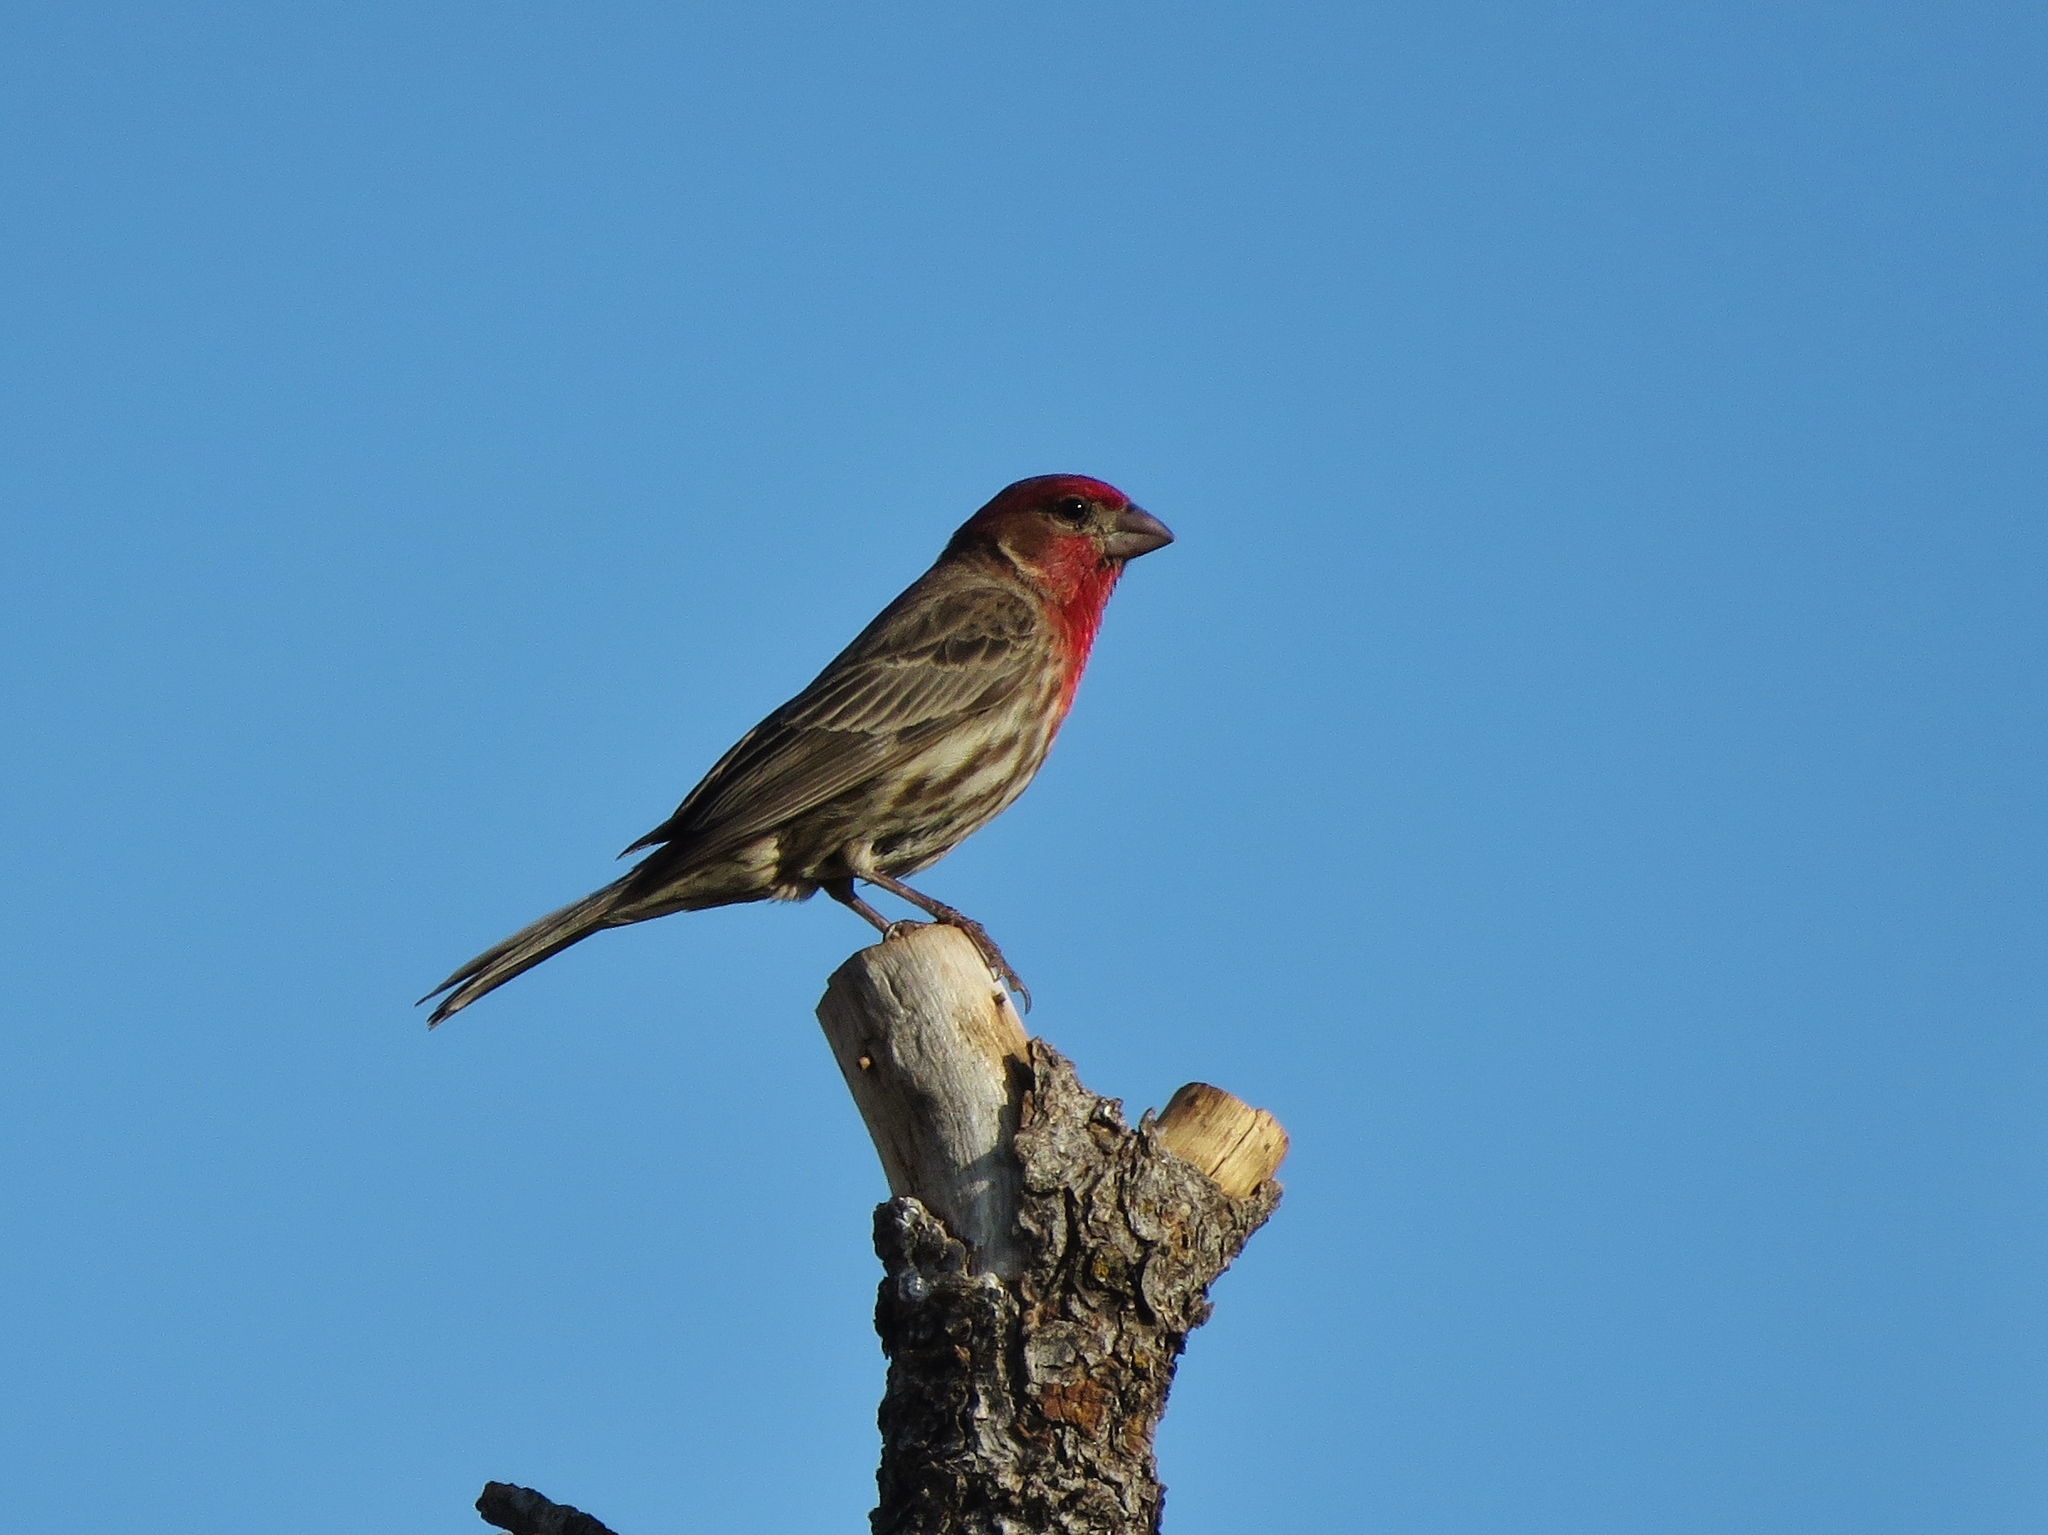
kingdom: Animalia
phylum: Chordata
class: Aves
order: Passeriformes
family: Fringillidae
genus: Haemorhous
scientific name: Haemorhous mexicanus
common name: House finch
